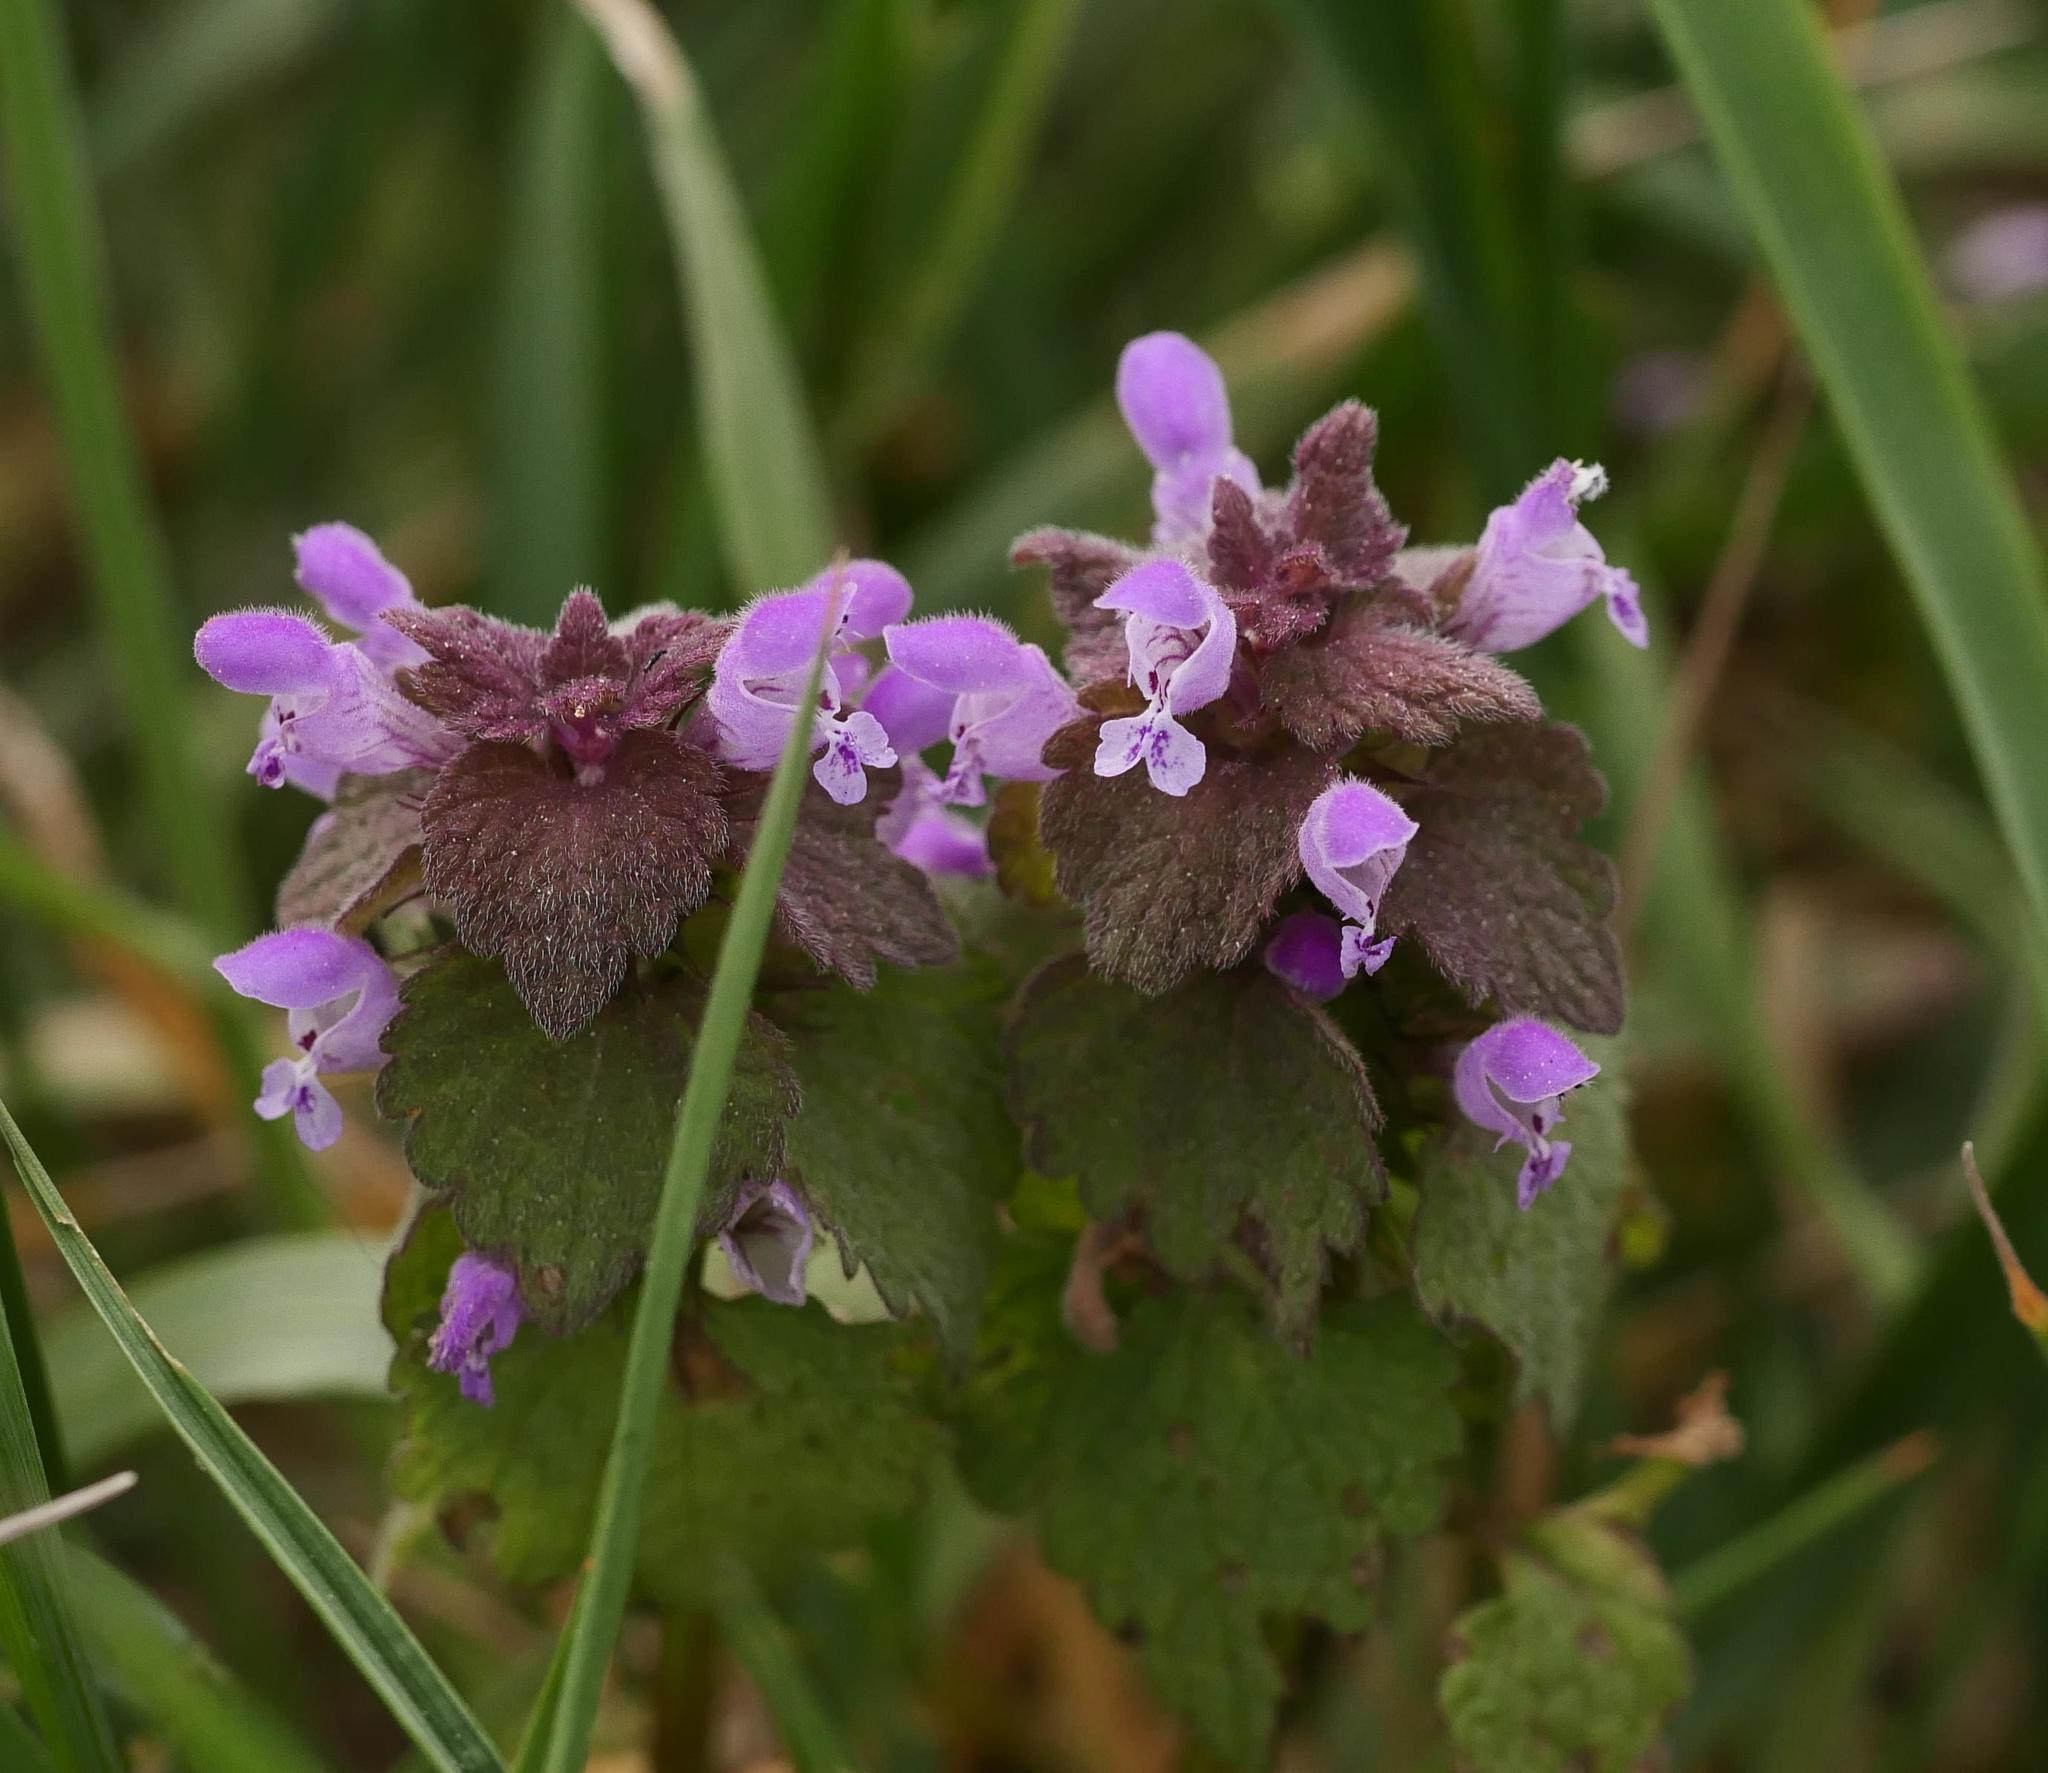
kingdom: Plantae
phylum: Tracheophyta
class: Magnoliopsida
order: Lamiales
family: Lamiaceae
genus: Lamium
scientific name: Lamium purpureum
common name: Red dead-nettle
